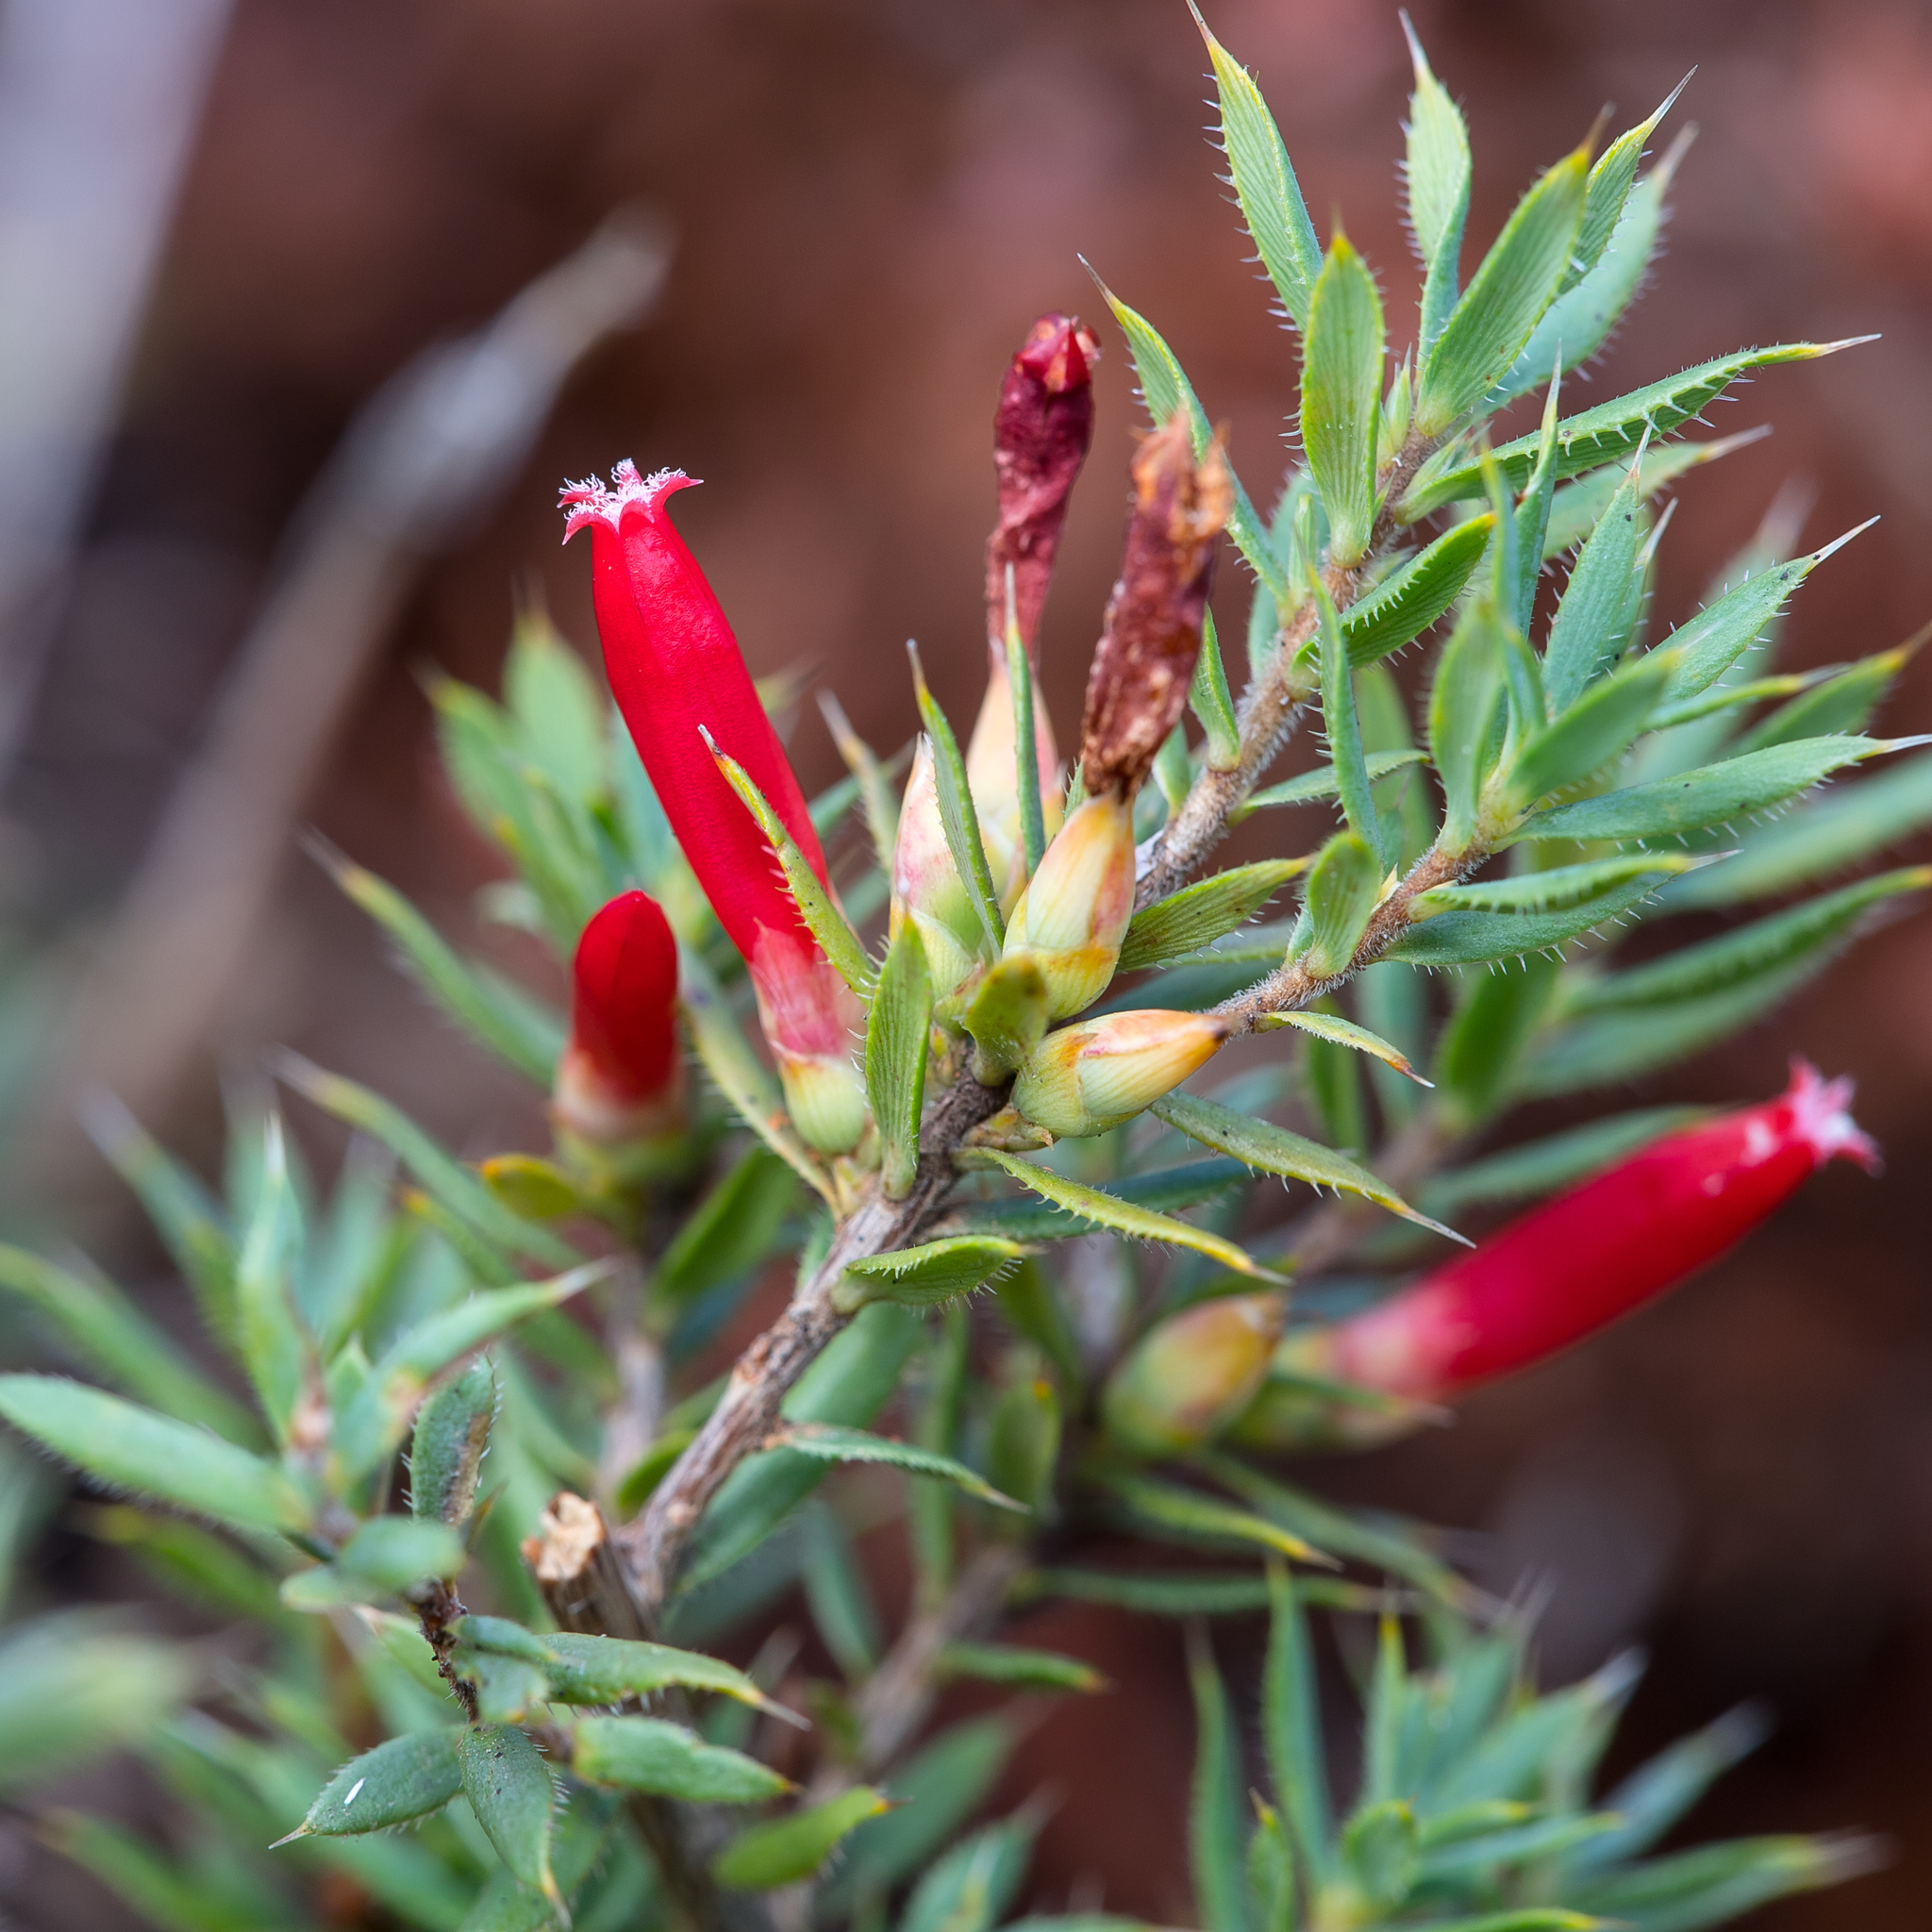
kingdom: Plantae
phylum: Tracheophyta
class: Magnoliopsida
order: Ericales
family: Ericaceae
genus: Styphelia
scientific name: Styphelia humifusa
